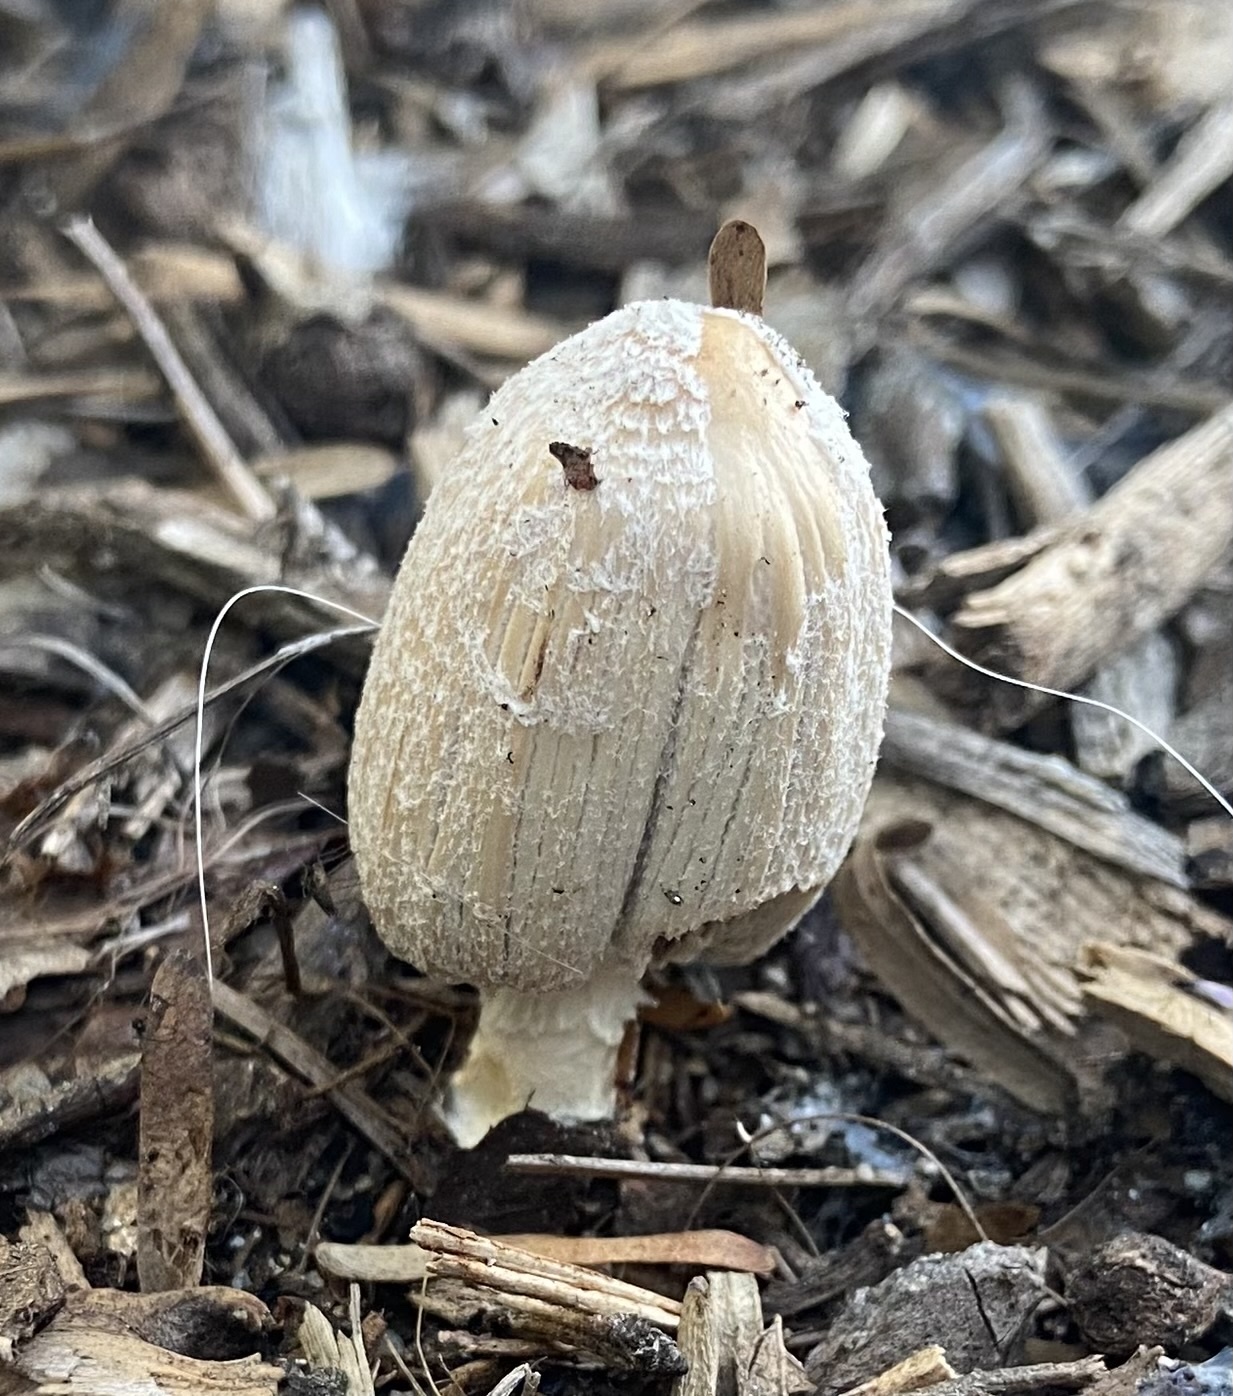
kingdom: Fungi
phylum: Basidiomycota
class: Agaricomycetes
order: Agaricales
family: Psathyrellaceae
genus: Coprinellus
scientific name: Coprinellus flocculosus
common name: Flocculose inkcap
